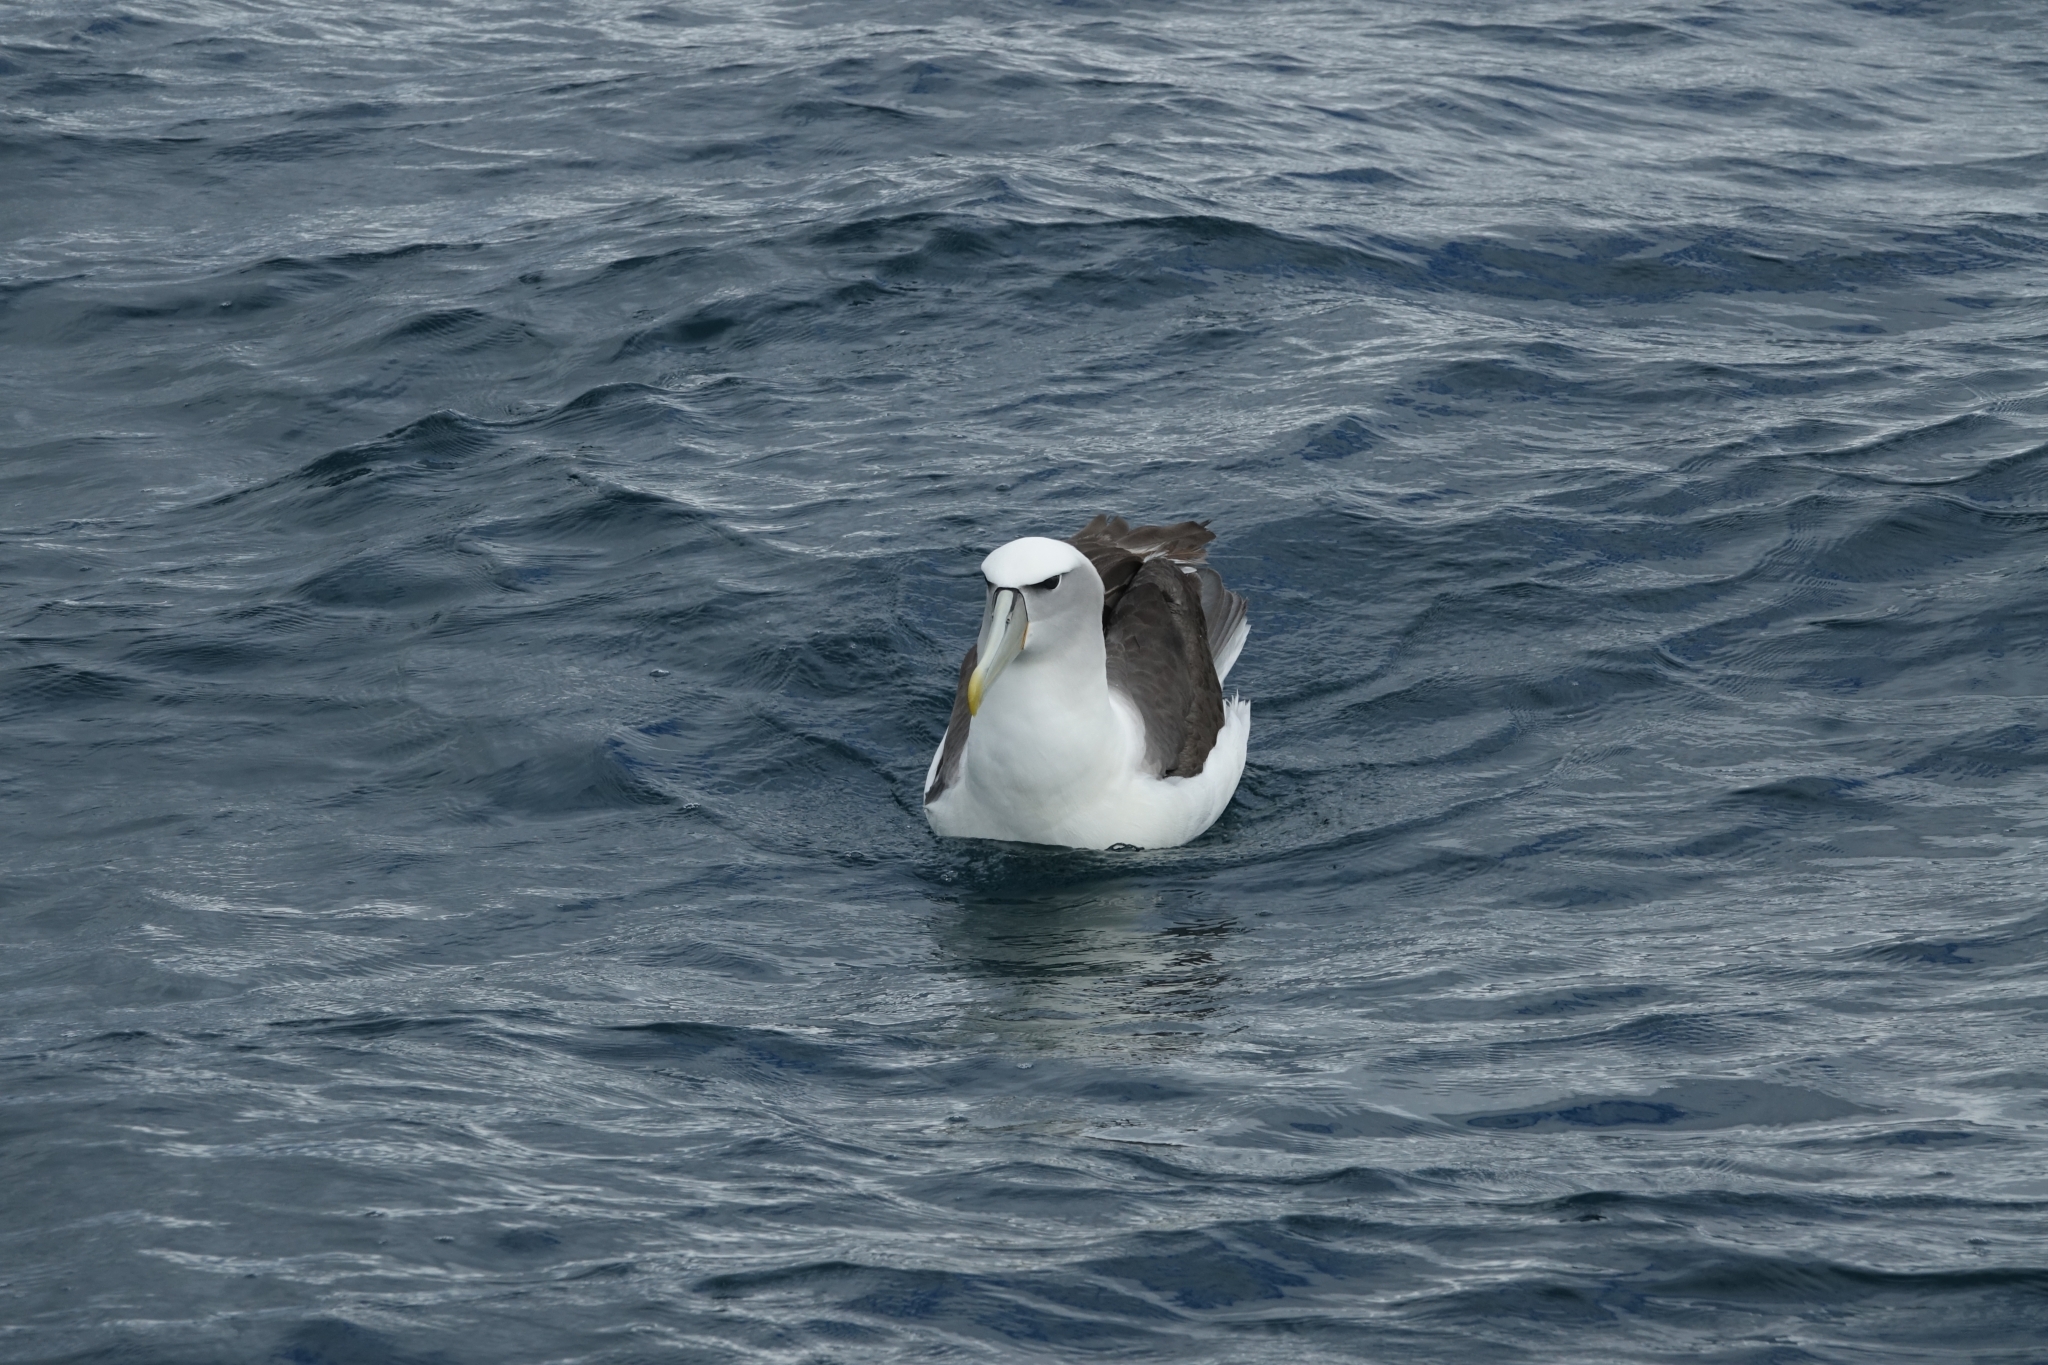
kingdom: Animalia
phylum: Chordata
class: Aves
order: Procellariiformes
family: Diomedeidae
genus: Thalassarche
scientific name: Thalassarche cauta
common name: Shy albatross
